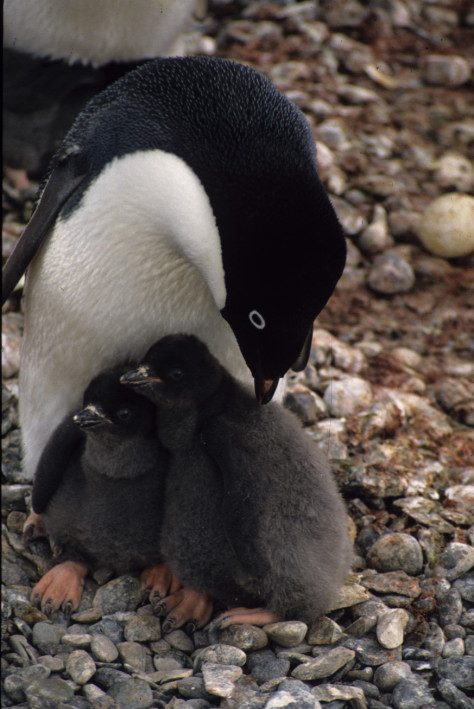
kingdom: Animalia
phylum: Chordata
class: Aves
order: Sphenisciformes
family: Spheniscidae
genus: Pygoscelis
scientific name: Pygoscelis adeliae
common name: Adelie penguin
